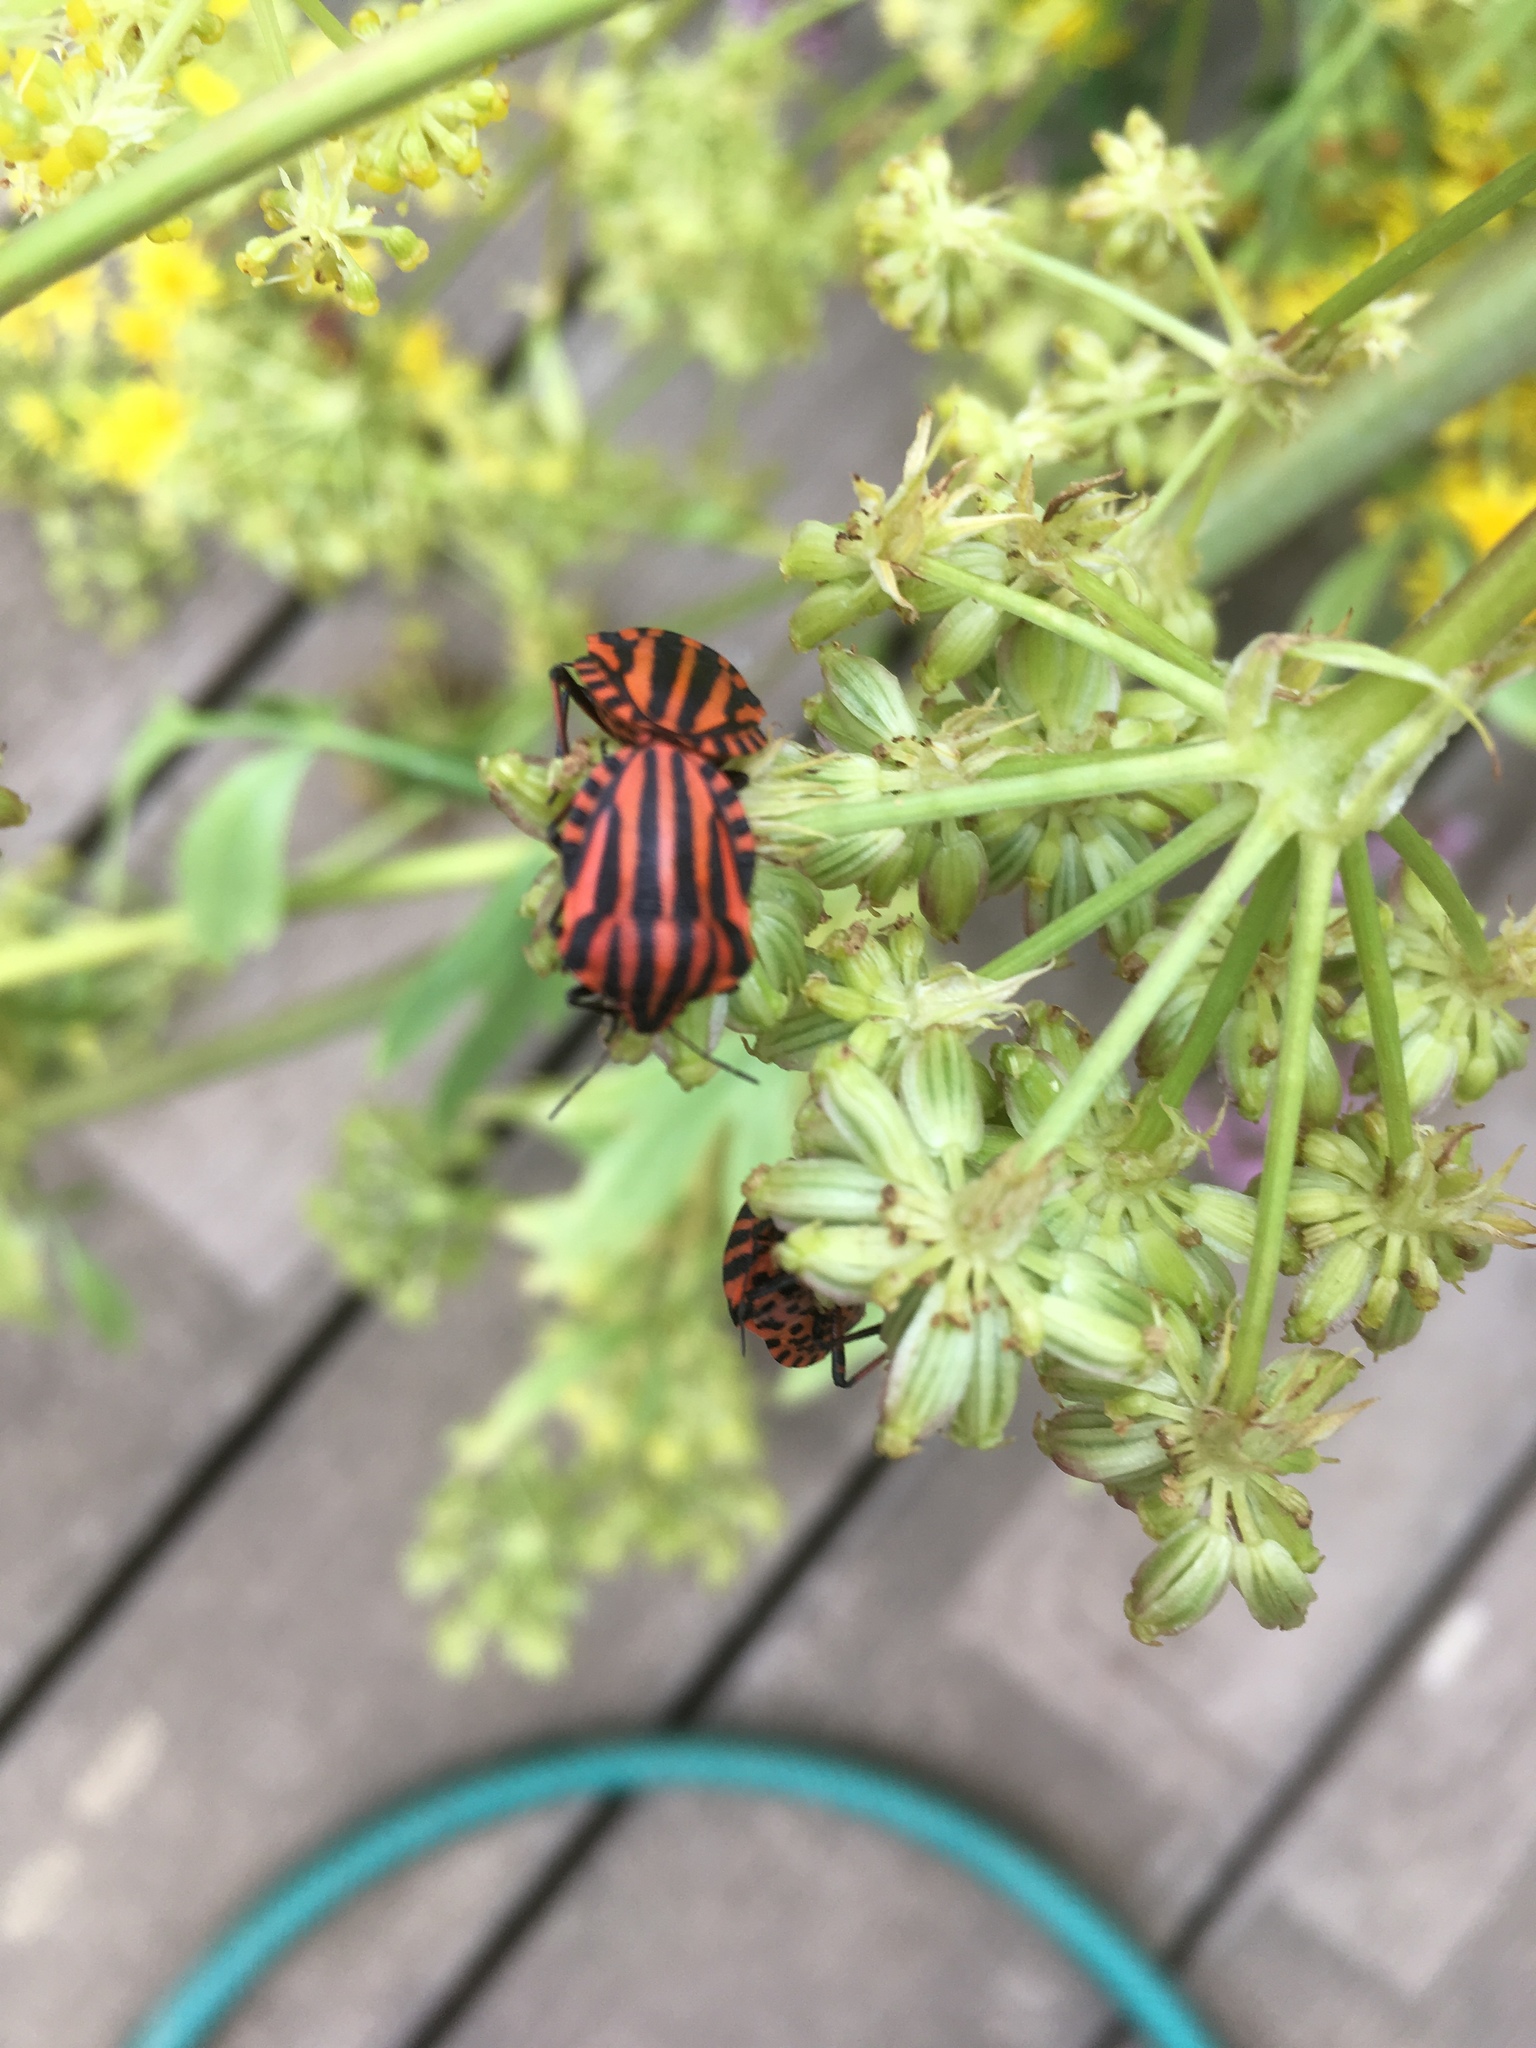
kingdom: Animalia
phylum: Arthropoda
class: Insecta
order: Hemiptera
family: Pentatomidae
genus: Graphosoma
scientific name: Graphosoma italicum
